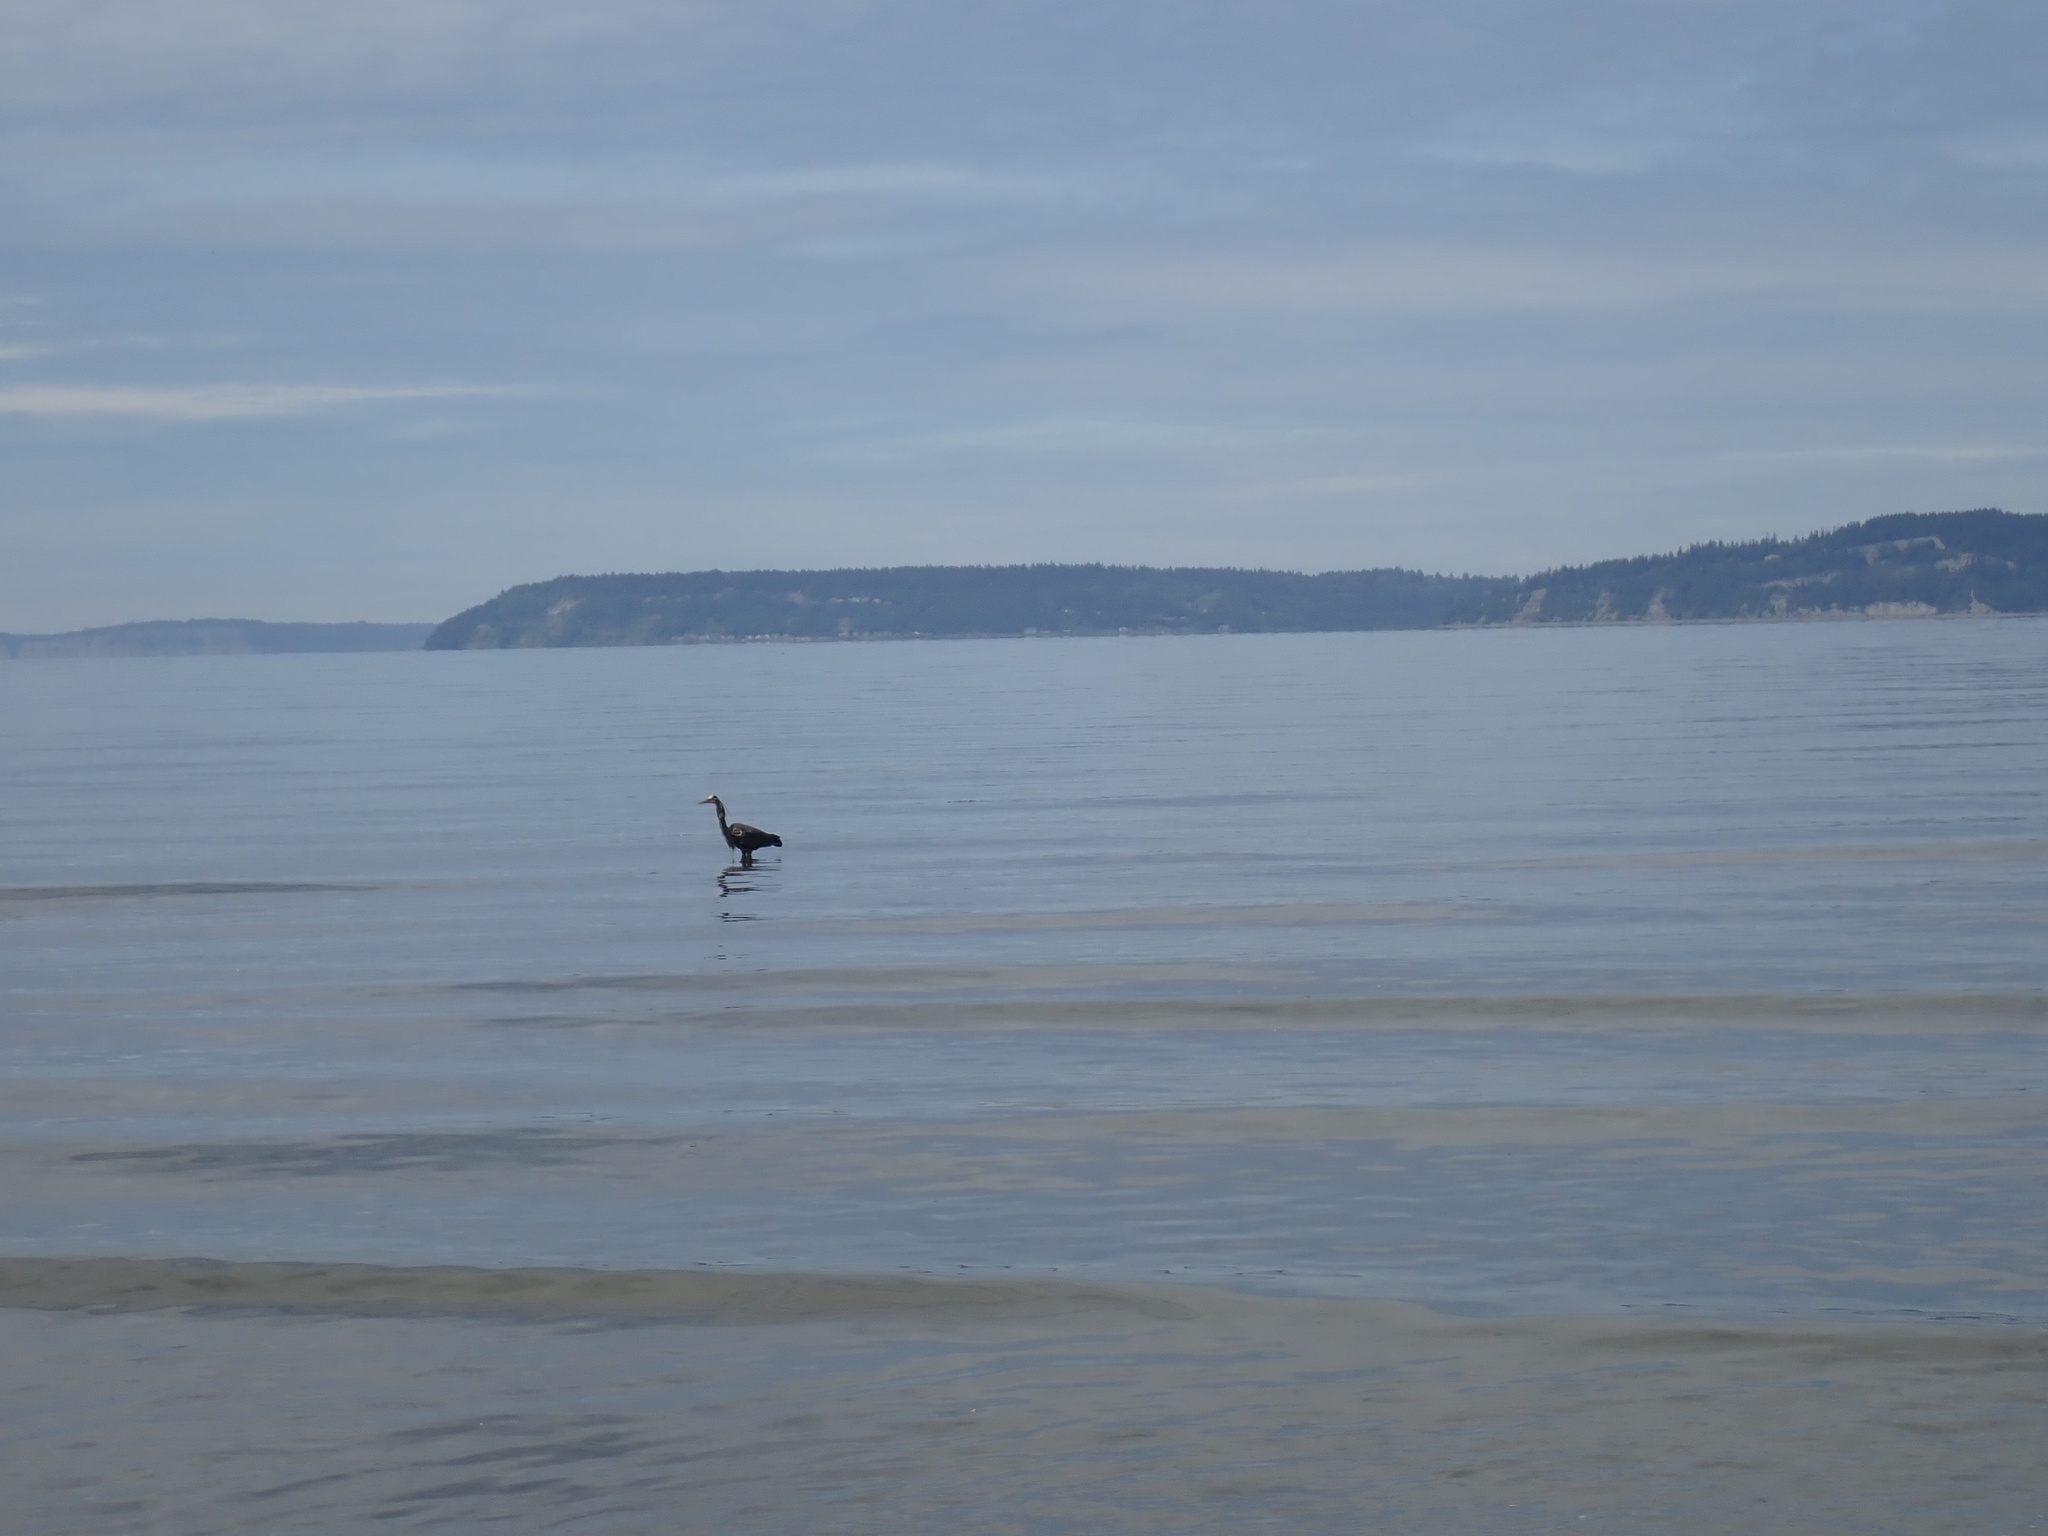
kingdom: Animalia
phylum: Chordata
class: Aves
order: Pelecaniformes
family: Ardeidae
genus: Ardea
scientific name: Ardea herodias
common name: Great blue heron
